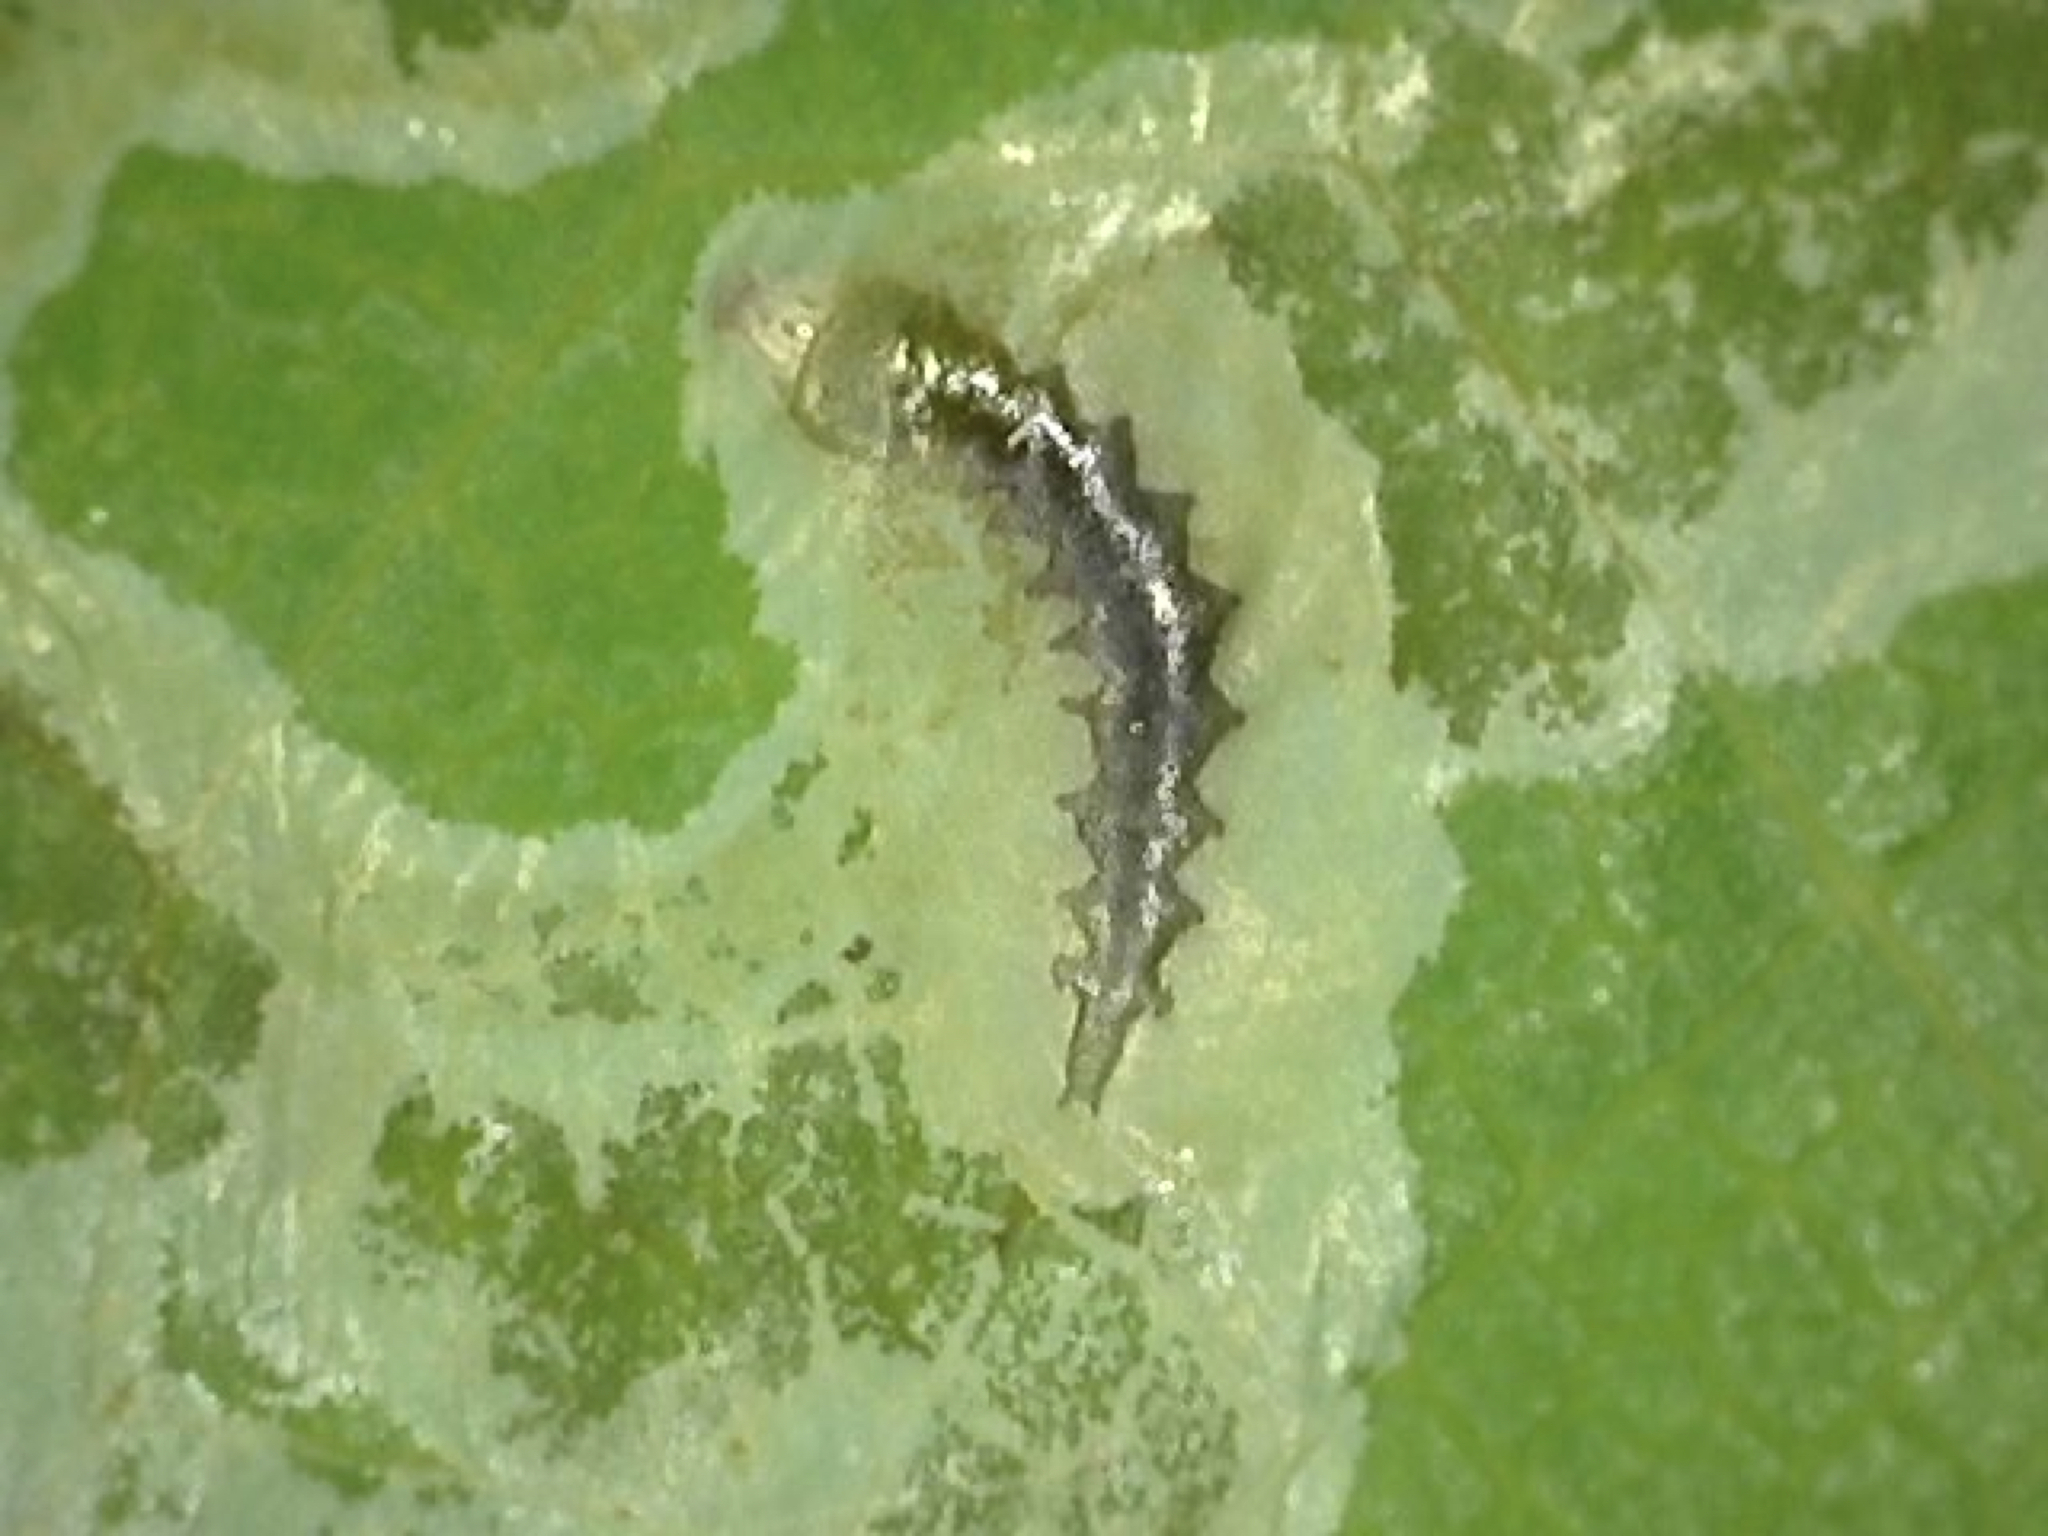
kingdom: Animalia
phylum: Arthropoda
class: Insecta
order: Lepidoptera
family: Gracillariidae
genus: Phyllocnistis
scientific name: Phyllocnistis liriodendronella
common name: Tulip tree leaf miner
